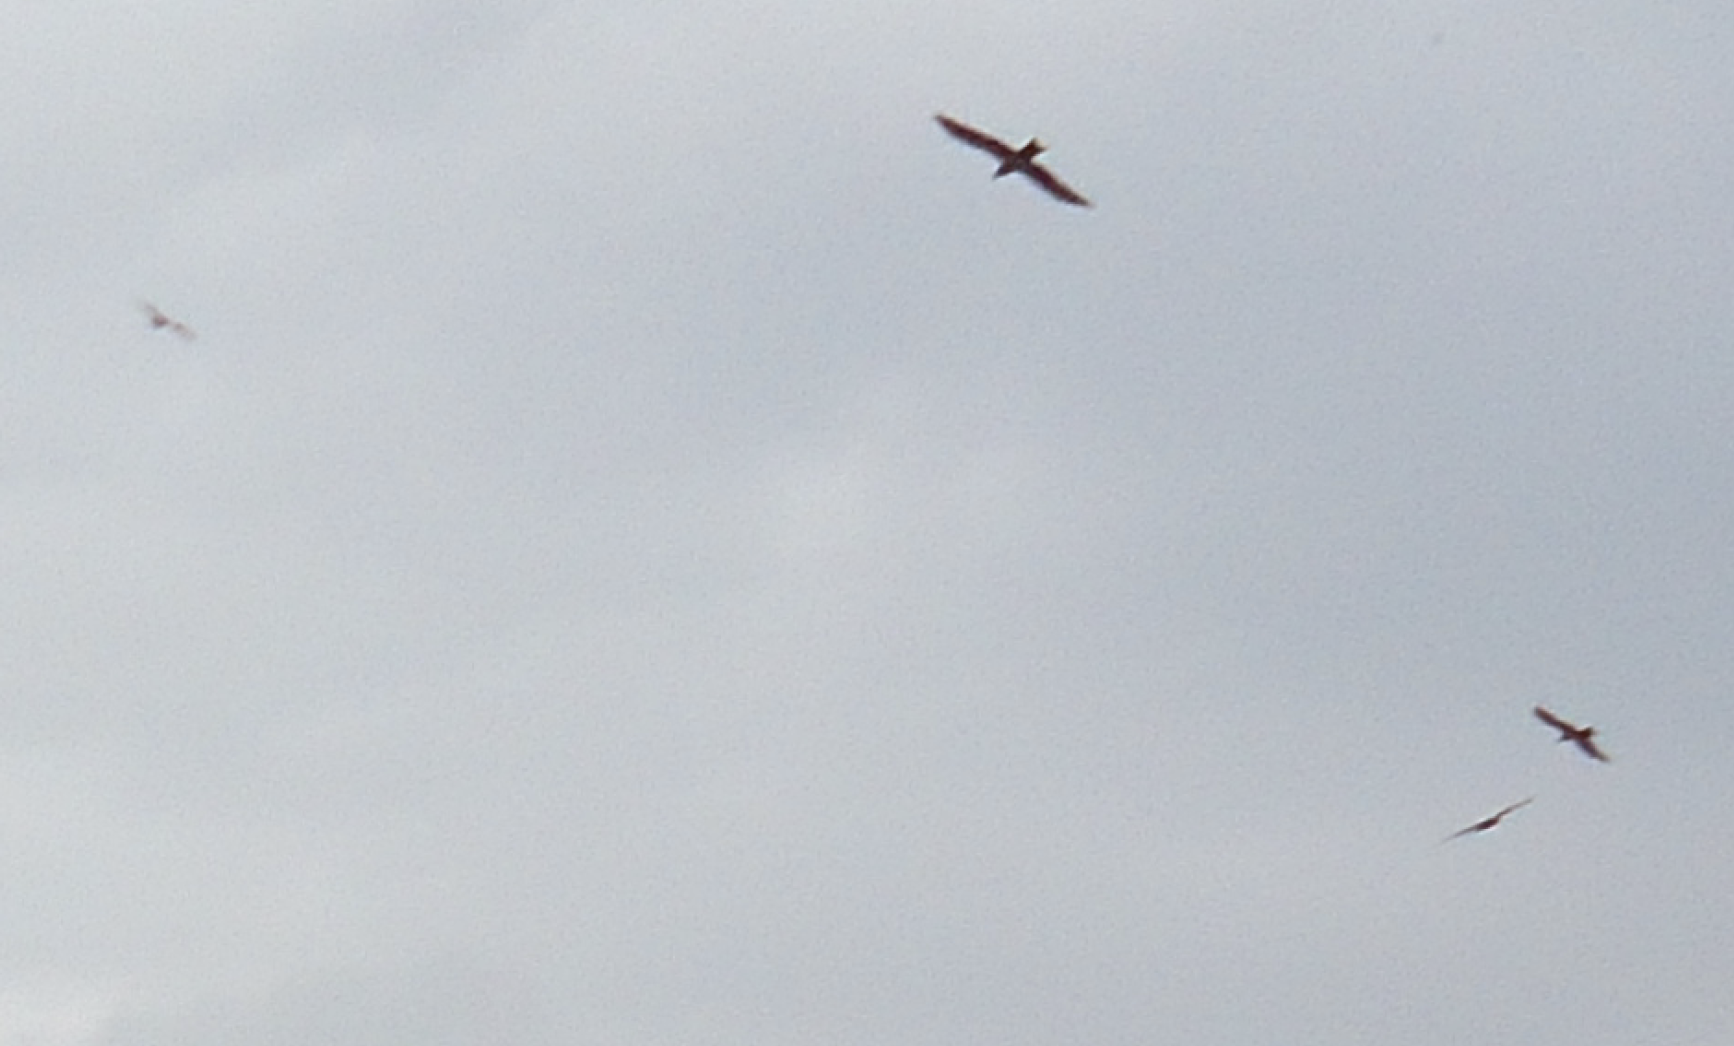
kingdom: Animalia
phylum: Chordata
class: Aves
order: Accipitriformes
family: Accipitridae
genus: Milvus
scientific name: Milvus migrans
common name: Black kite
